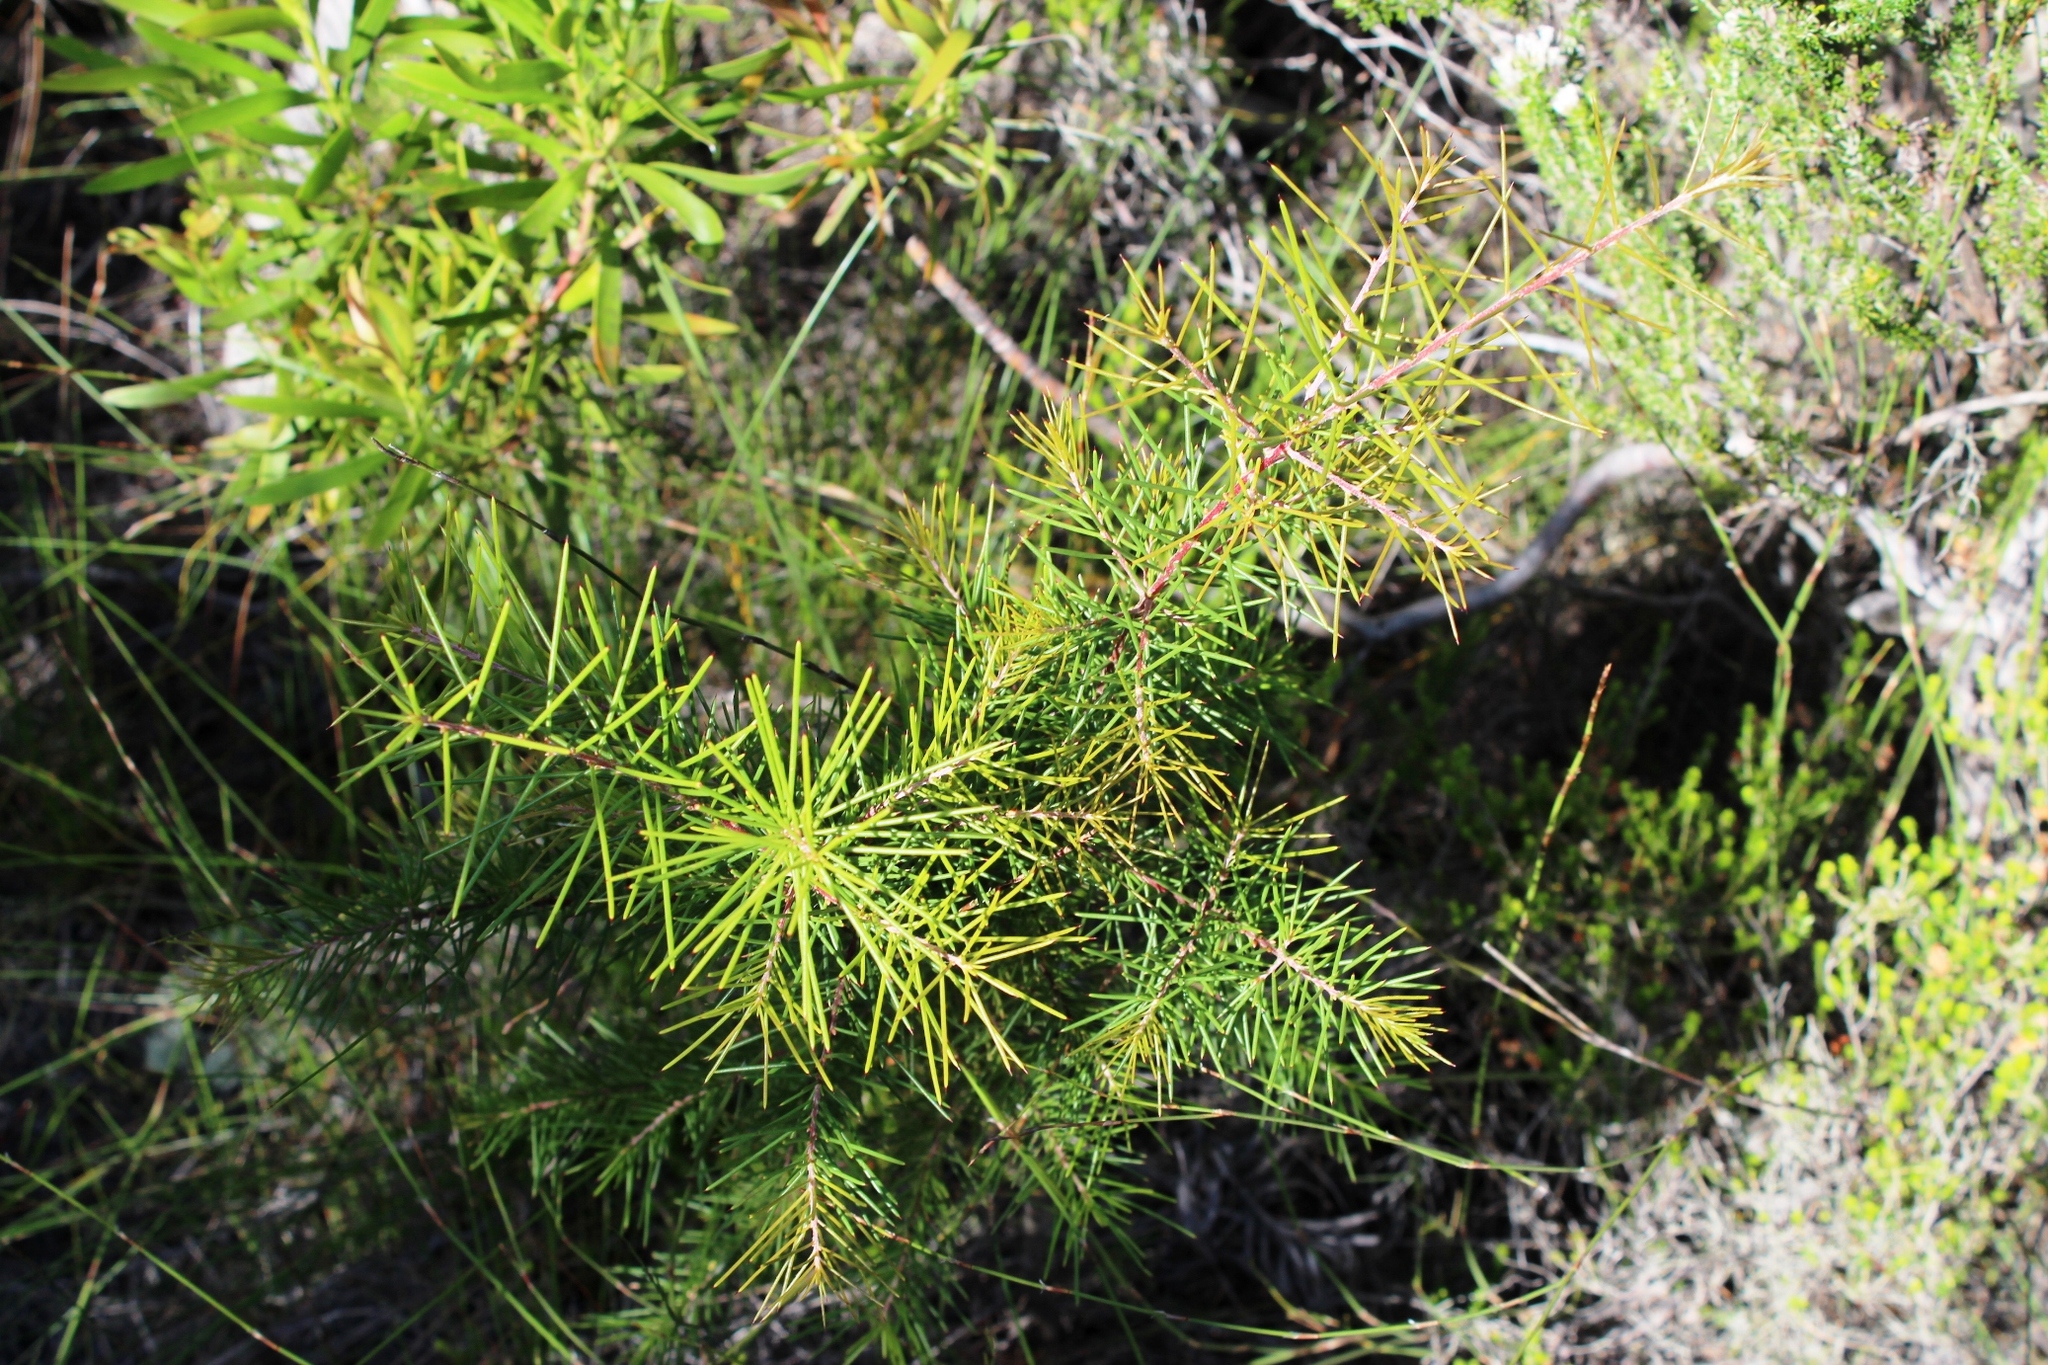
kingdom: Plantae
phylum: Tracheophyta
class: Magnoliopsida
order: Proteales
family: Proteaceae
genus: Hakea
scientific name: Hakea sericea
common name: Needle bush
